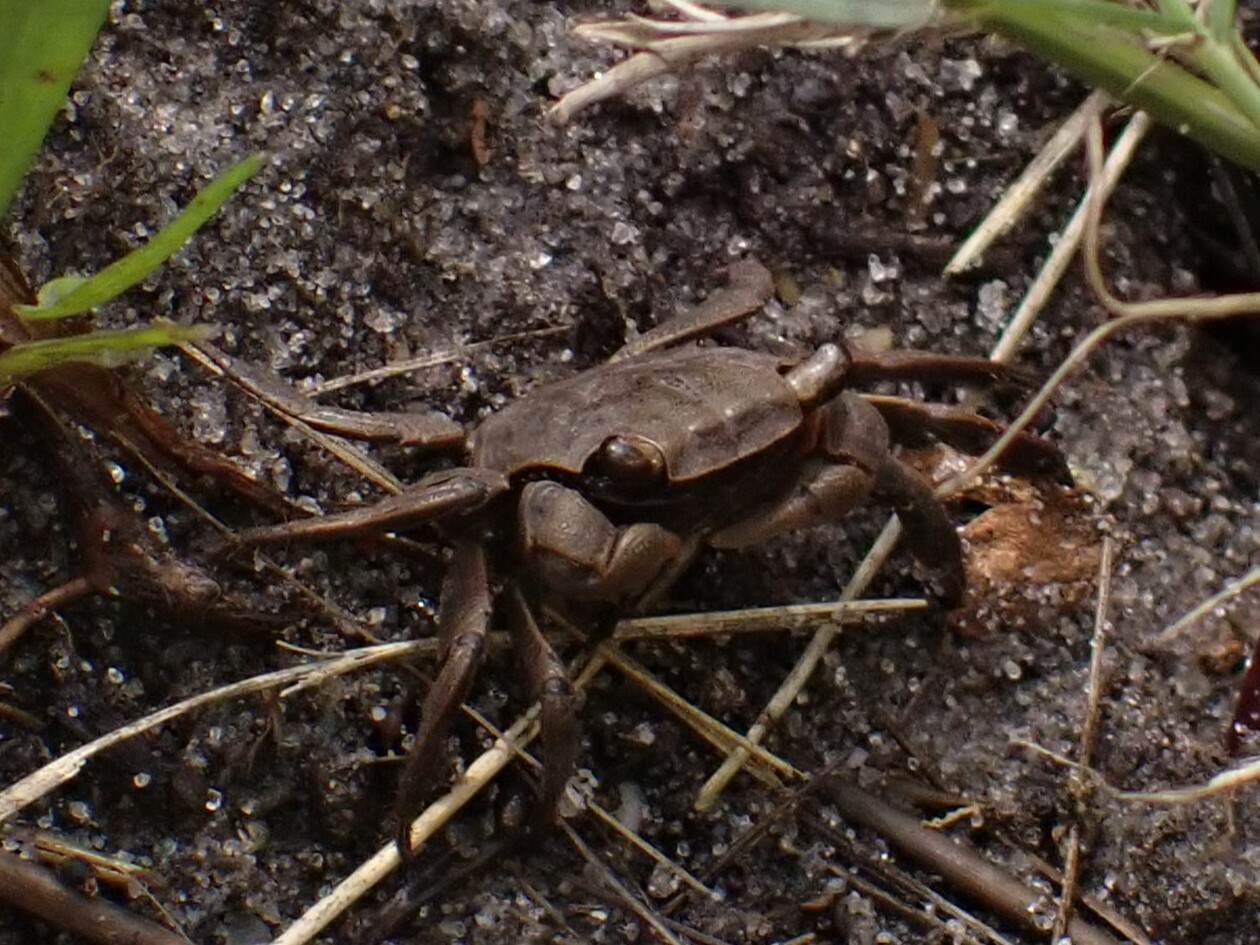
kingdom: Animalia
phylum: Arthropoda
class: Malacostraca
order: Decapoda
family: Sesarmidae
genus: Armases
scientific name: Armases cinereum
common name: Squareback marsh crab
